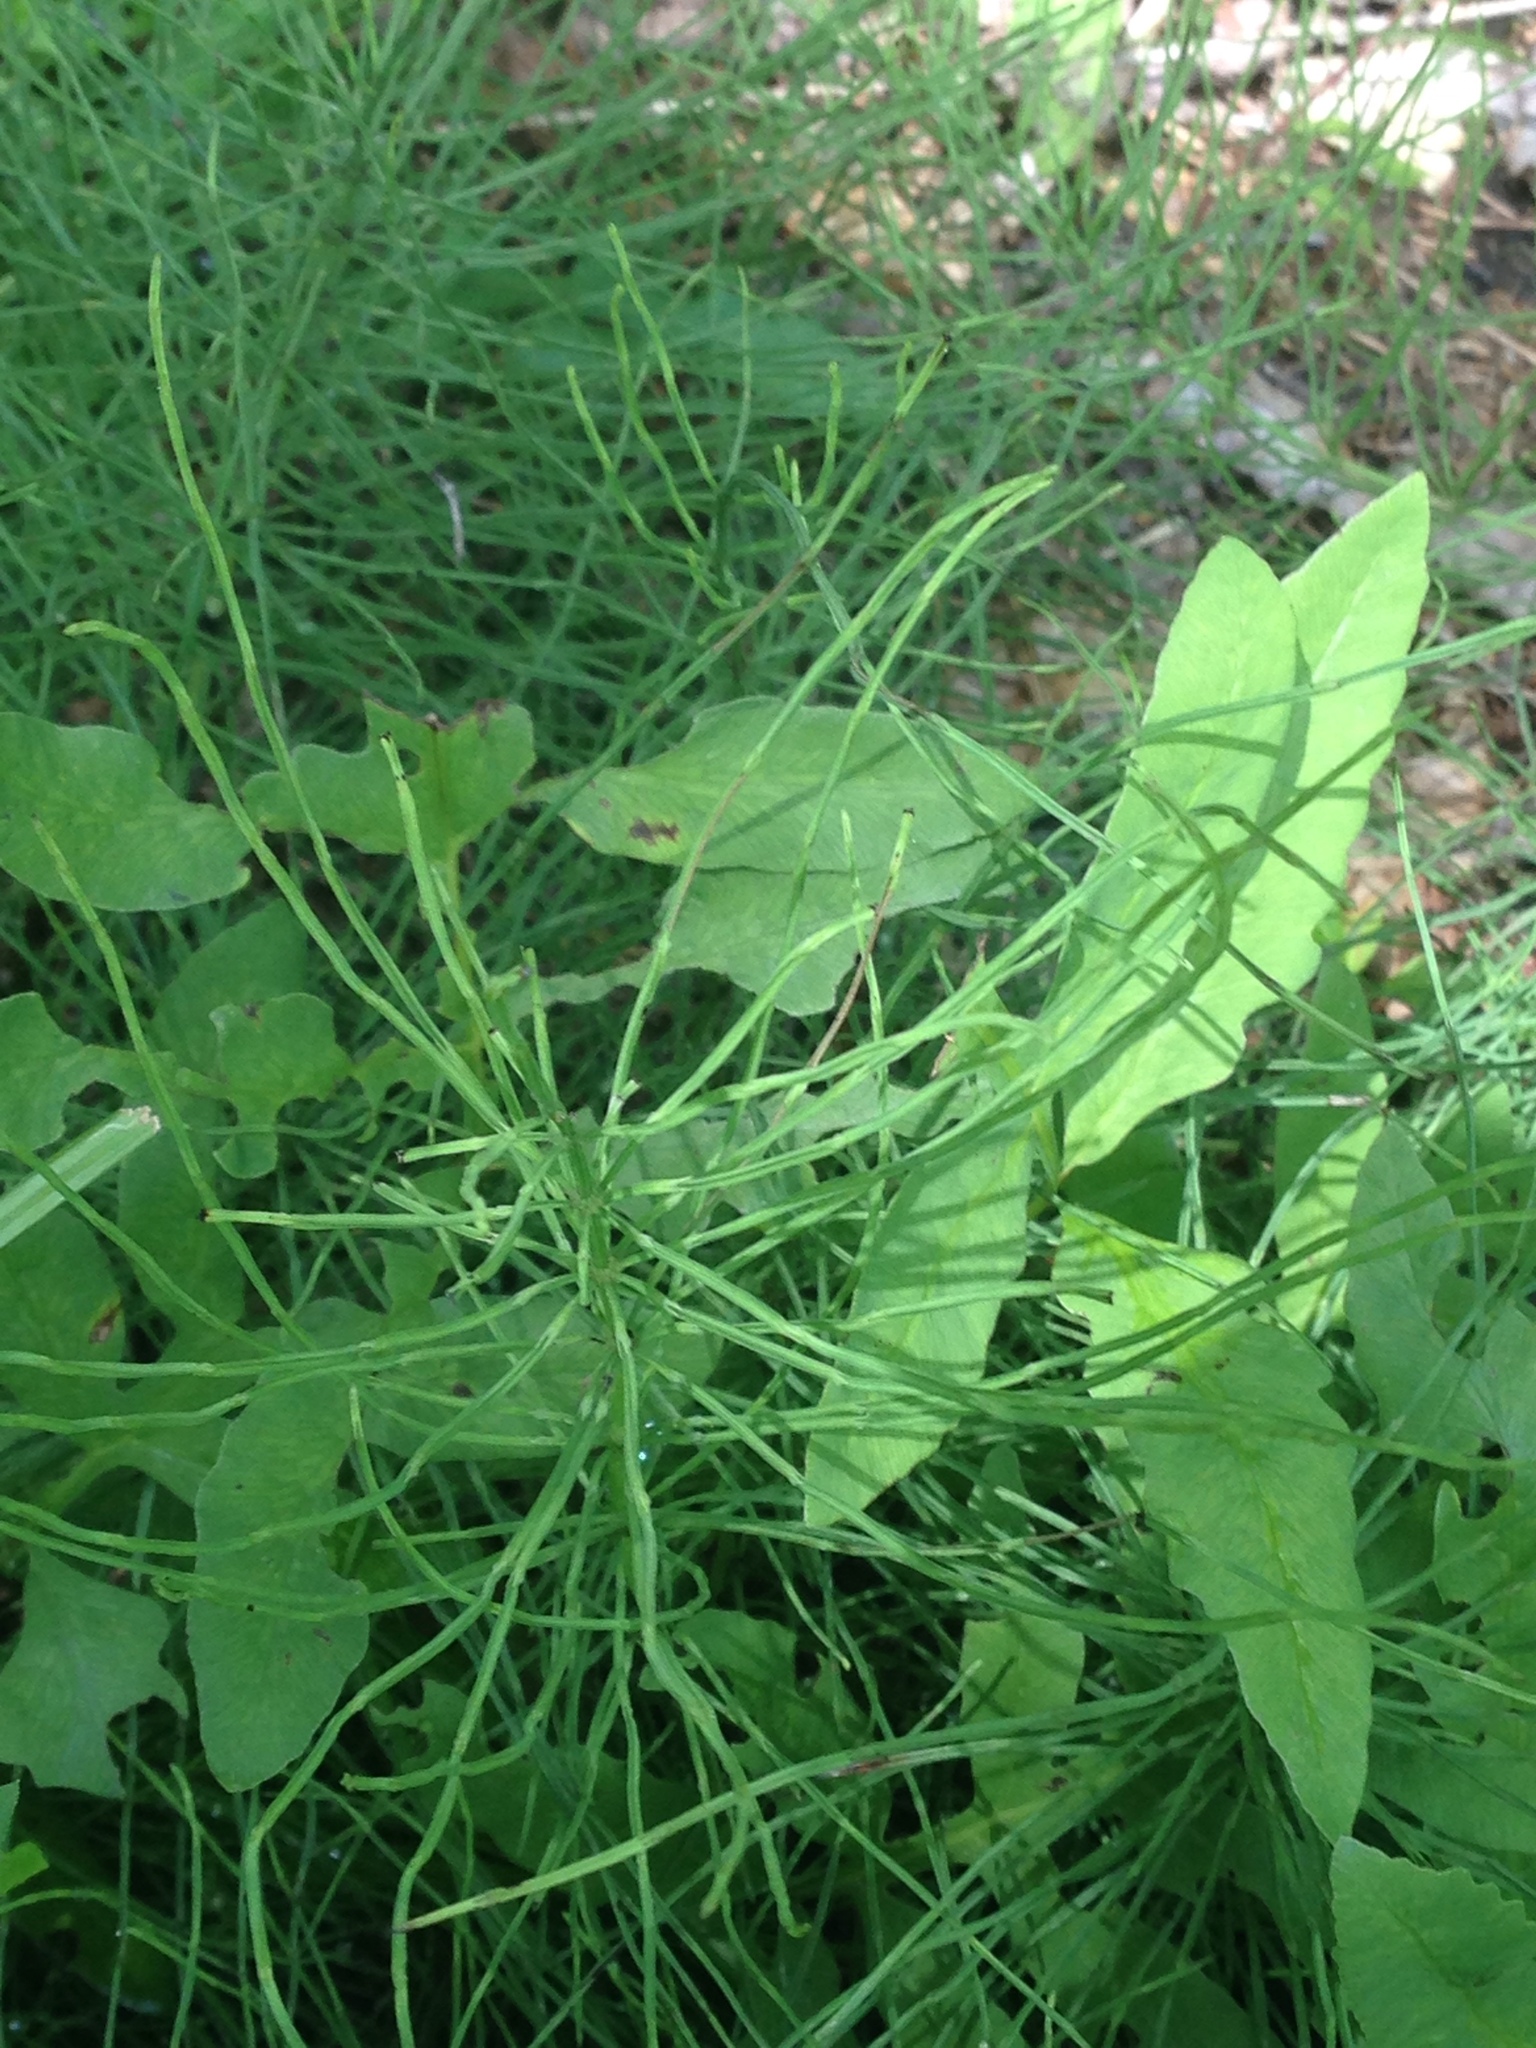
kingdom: Plantae
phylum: Tracheophyta
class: Polypodiopsida
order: Equisetales
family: Equisetaceae
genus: Equisetum
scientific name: Equisetum arvense
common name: Field horsetail
